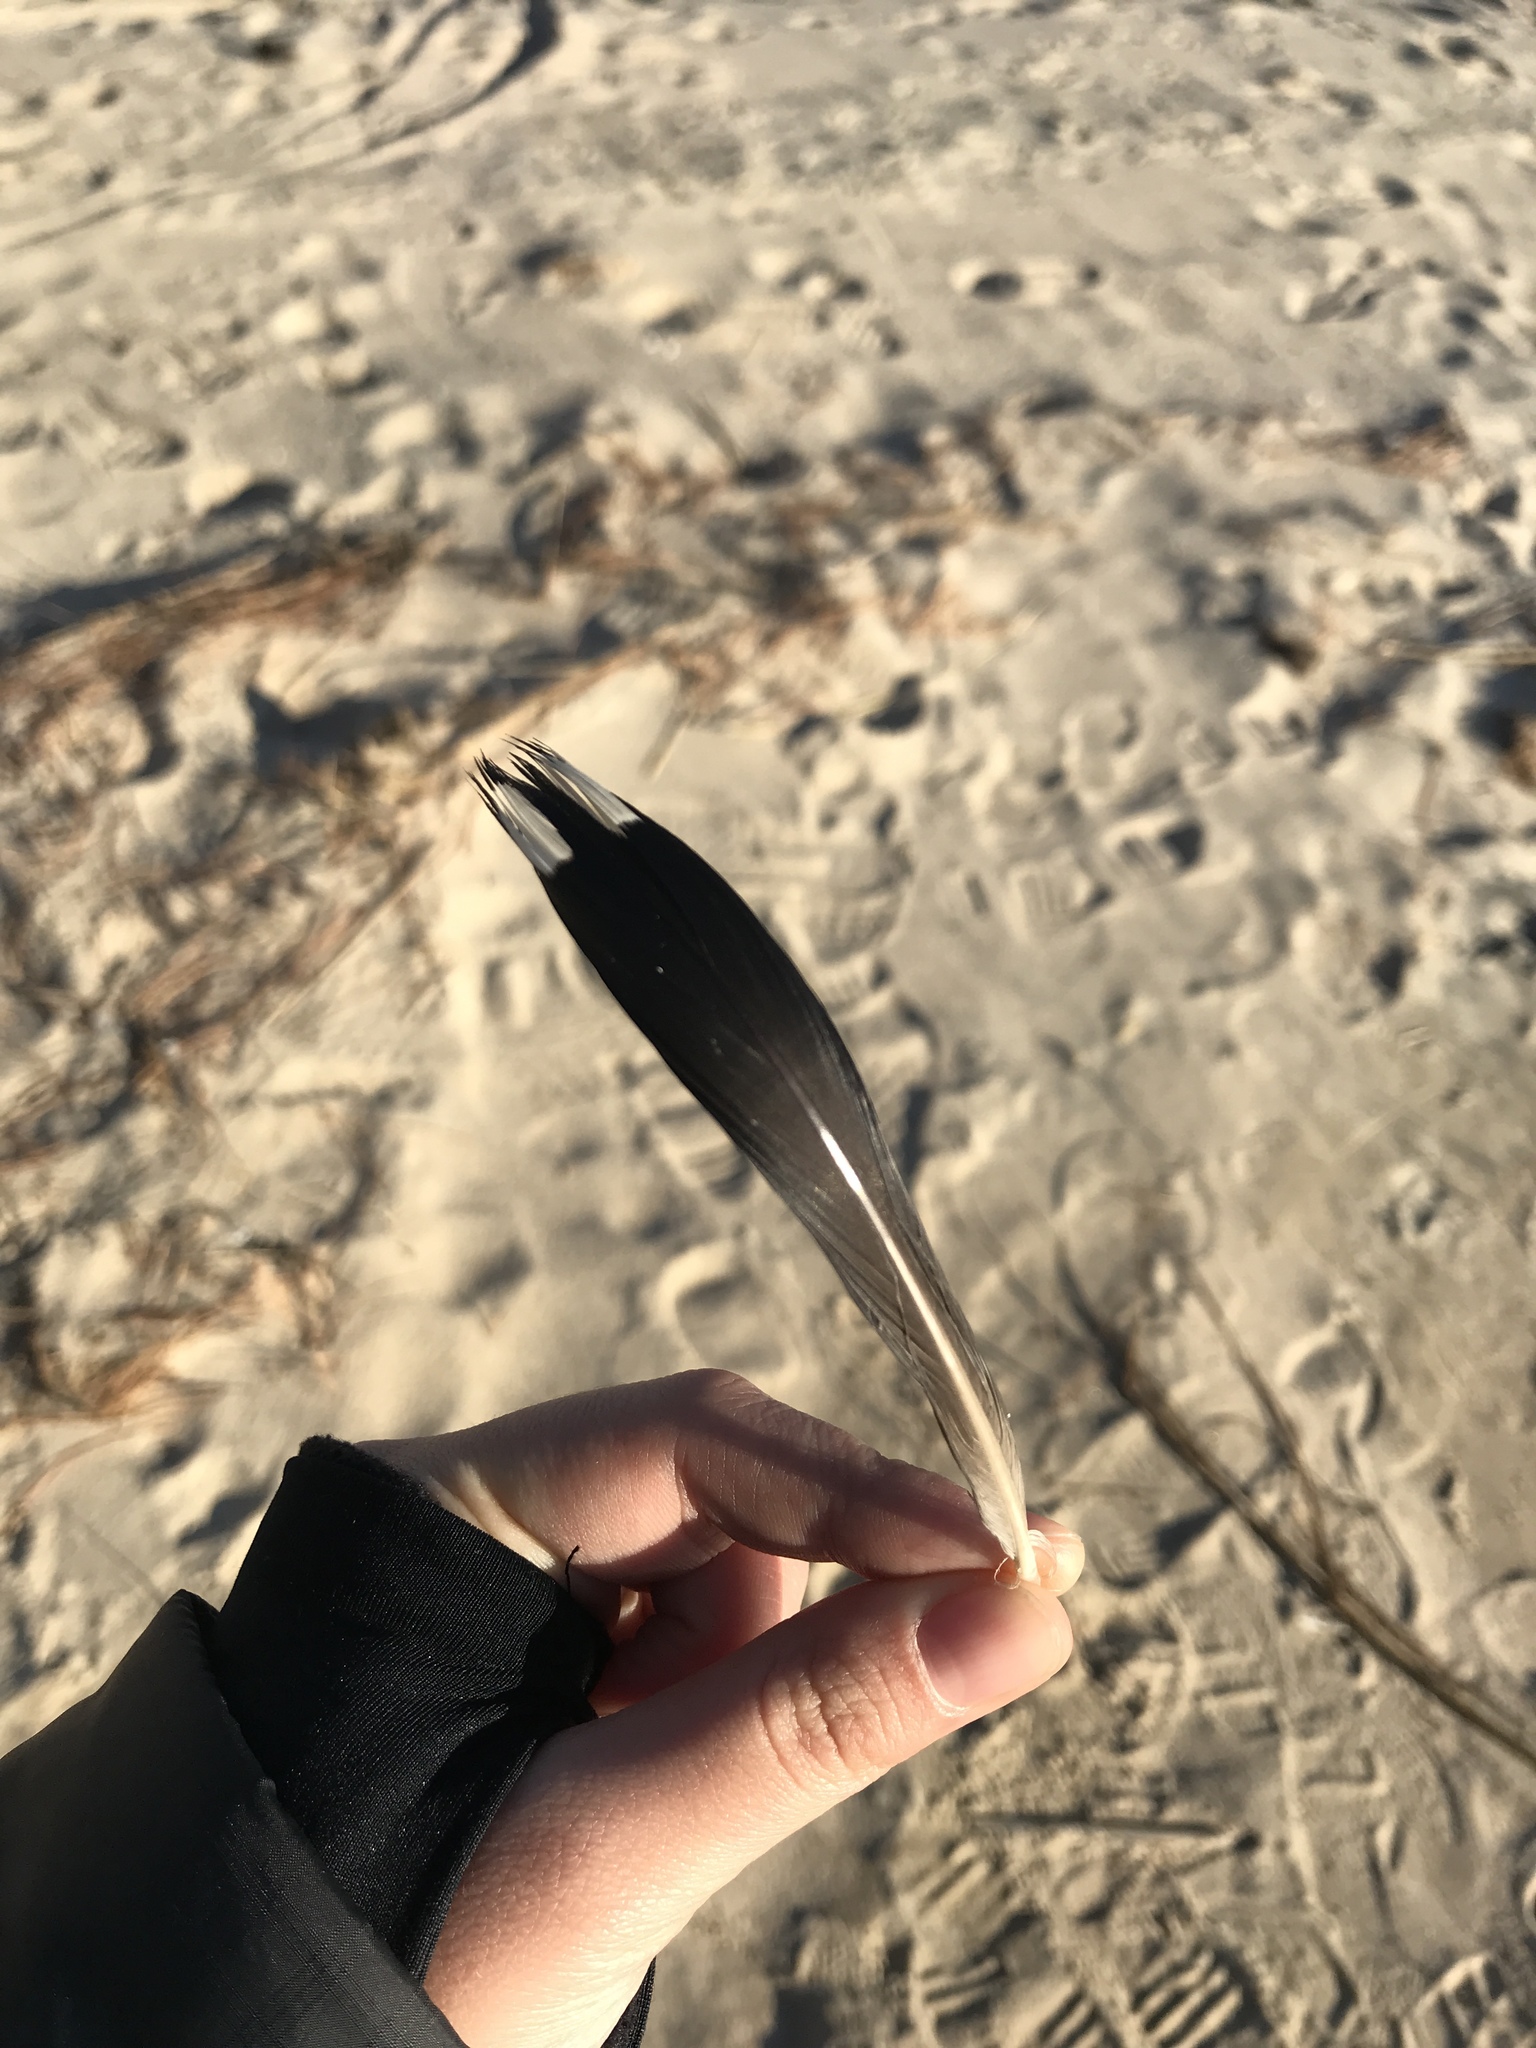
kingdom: Animalia
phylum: Chordata
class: Aves
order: Gaviiformes
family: Gaviidae
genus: Gavia
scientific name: Gavia immer
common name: Common loon
